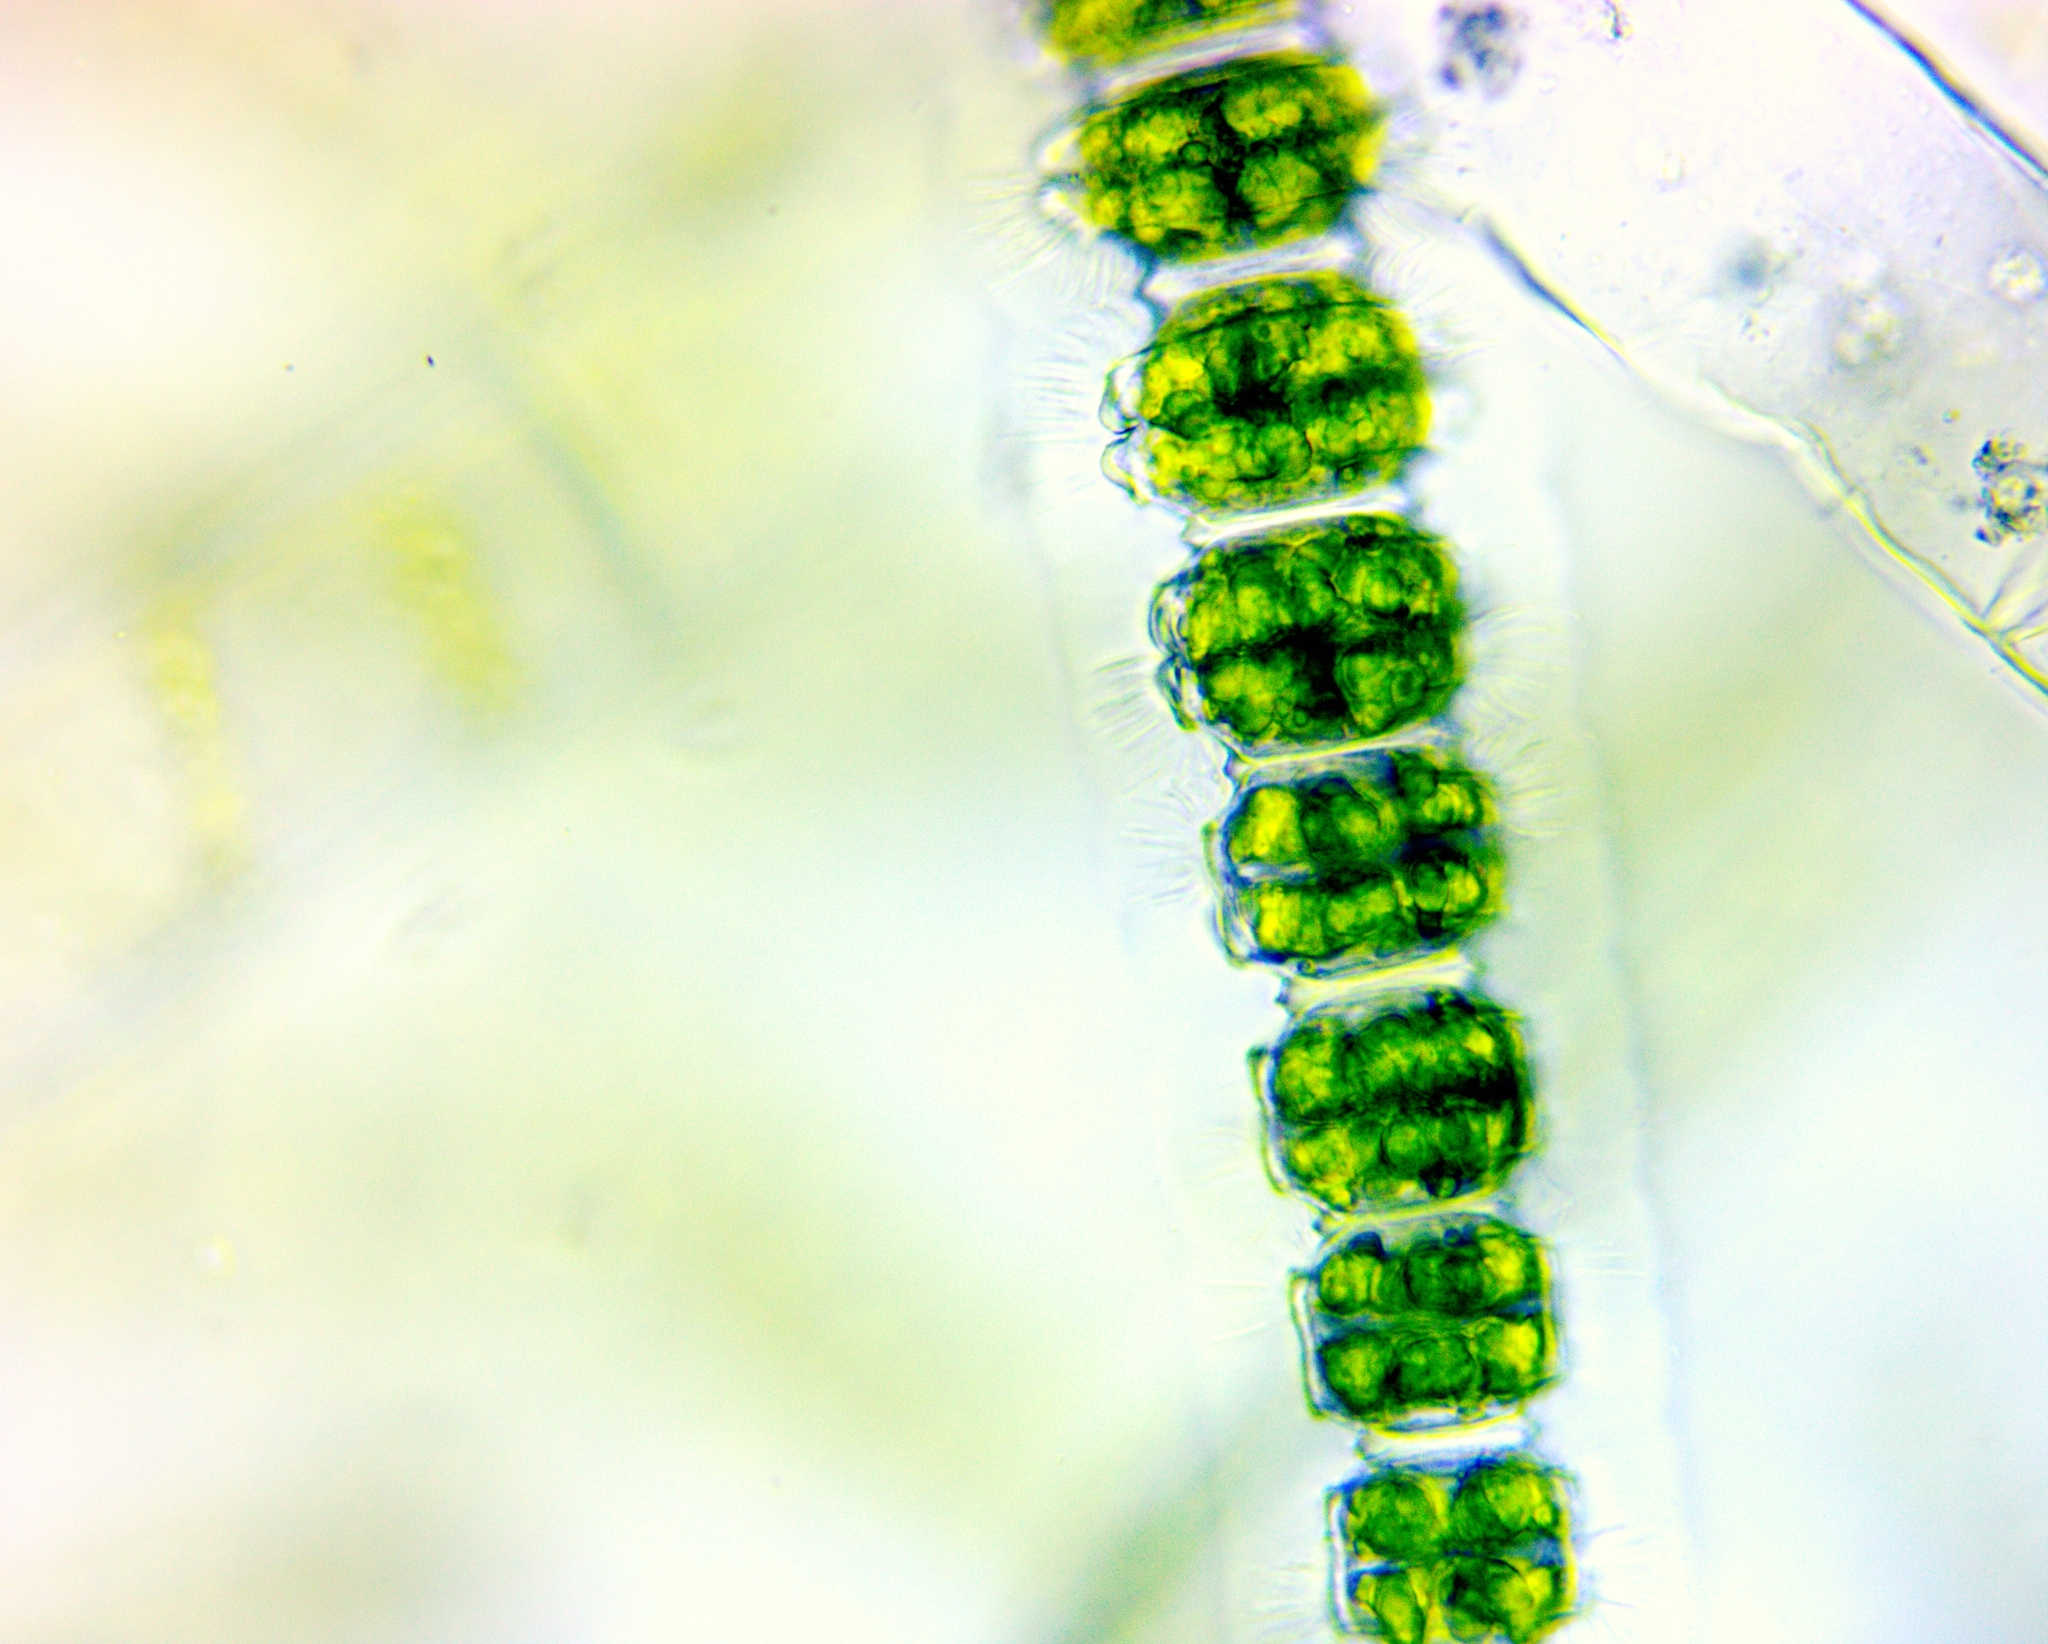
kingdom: Plantae
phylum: Charophyta
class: Conjugatophyceae
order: Desmidiales
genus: Desmidium
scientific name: Desmidium grevillei
